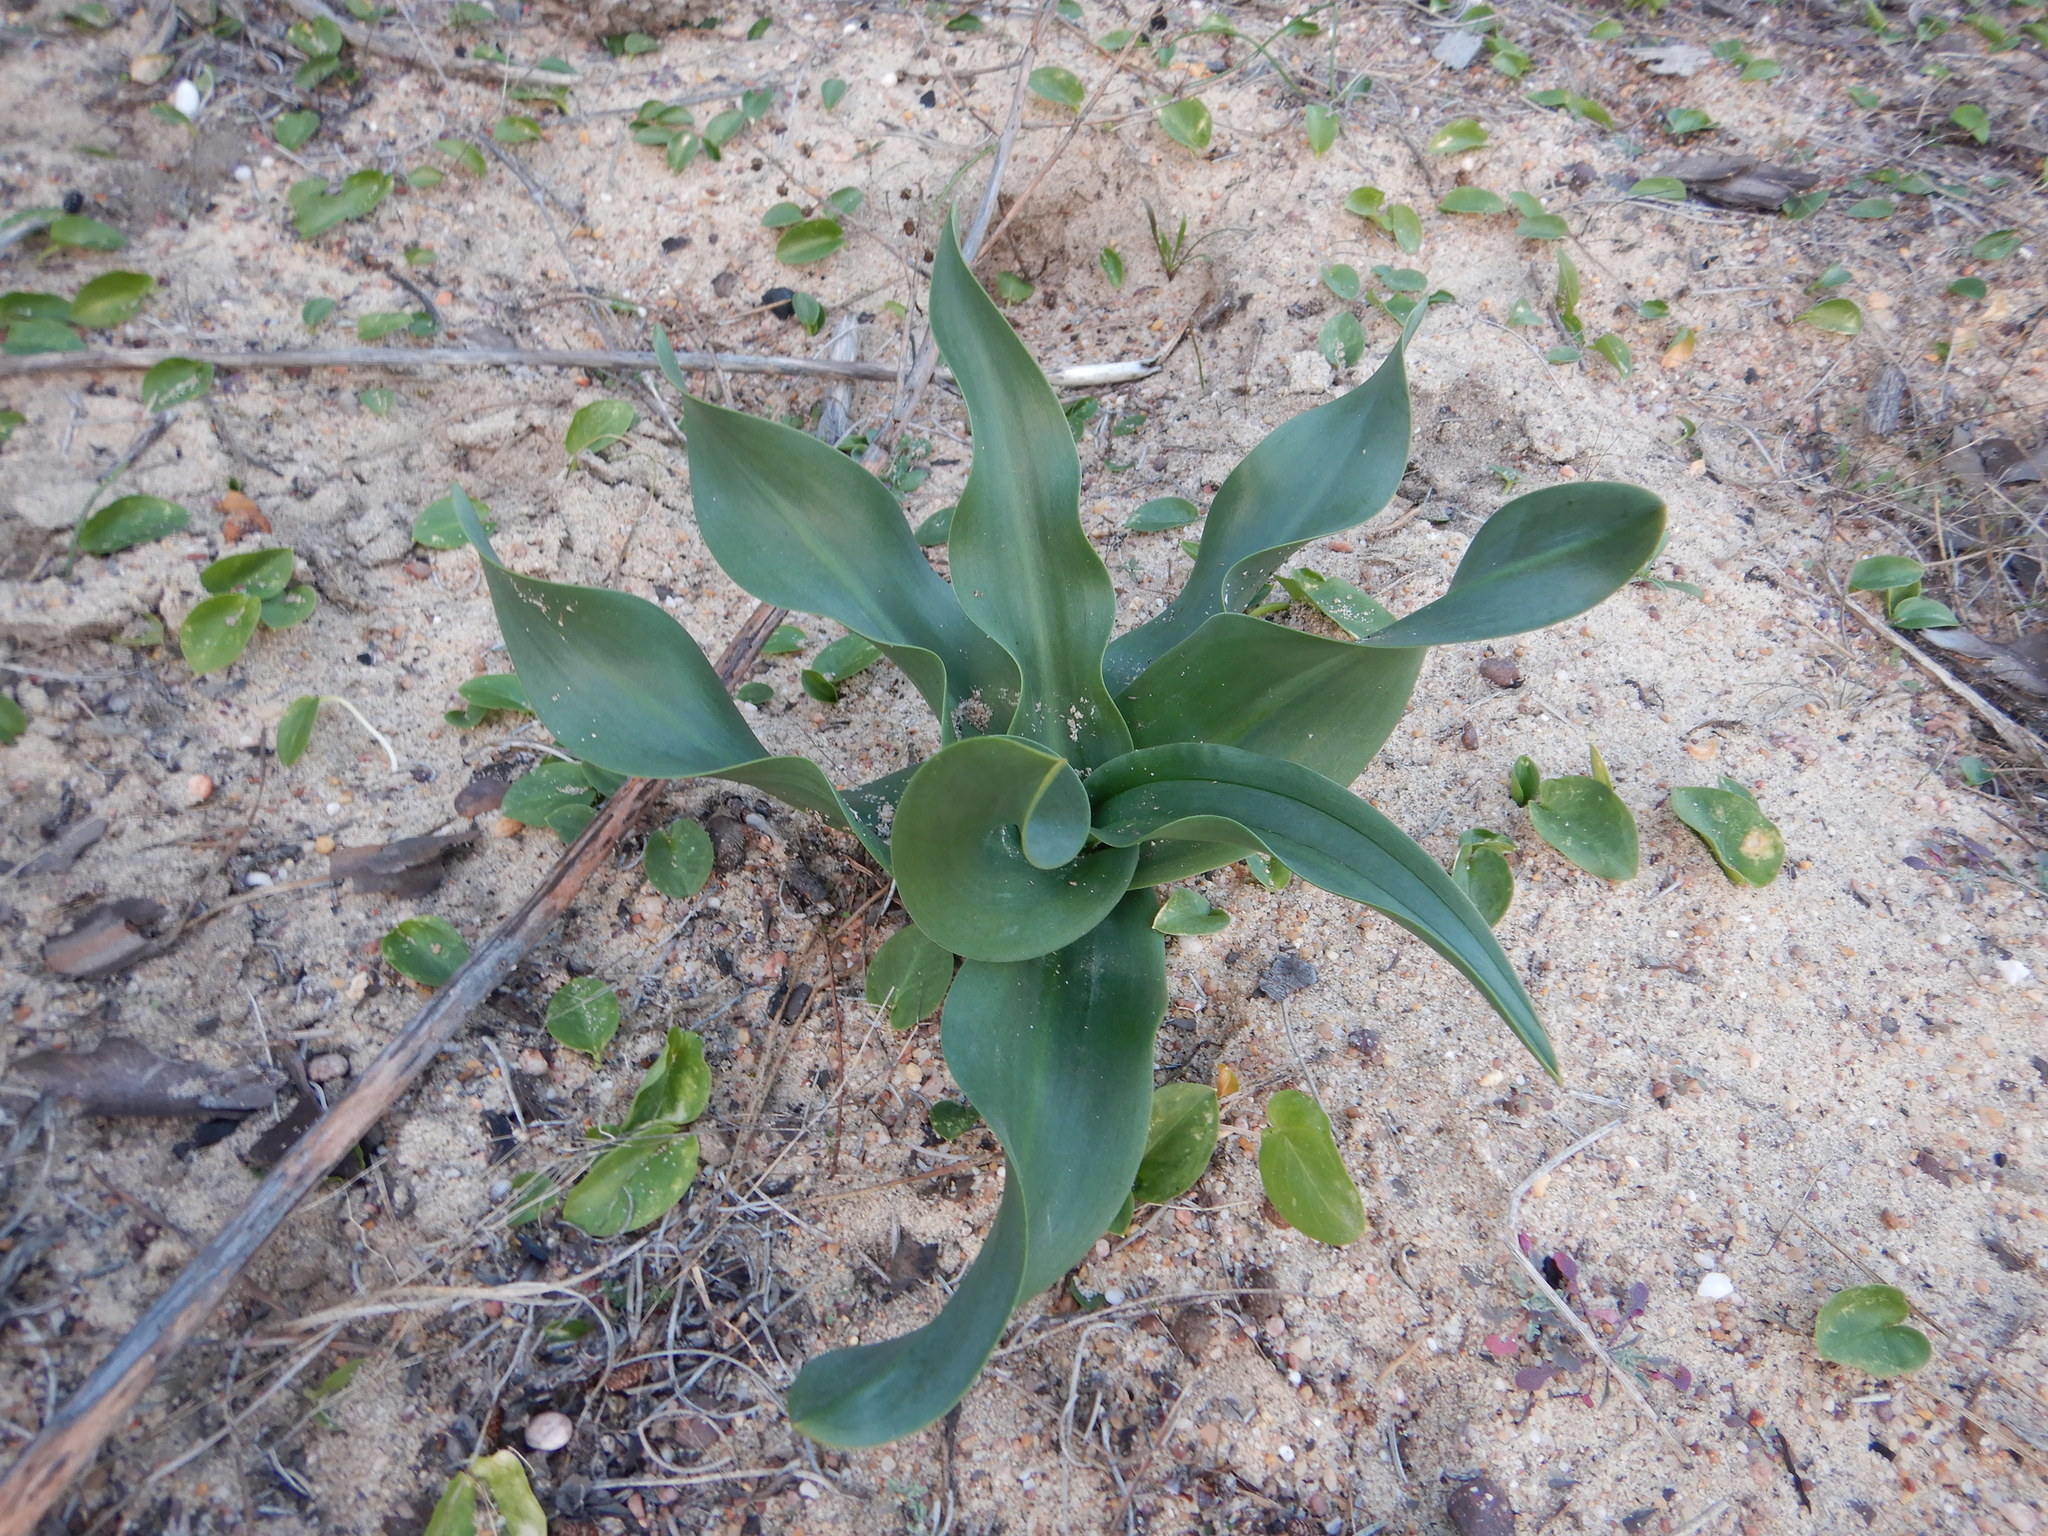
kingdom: Plantae
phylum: Tracheophyta
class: Liliopsida
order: Asparagales
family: Asparagaceae
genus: Drimia
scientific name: Drimia maritima
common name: Maritime squill
